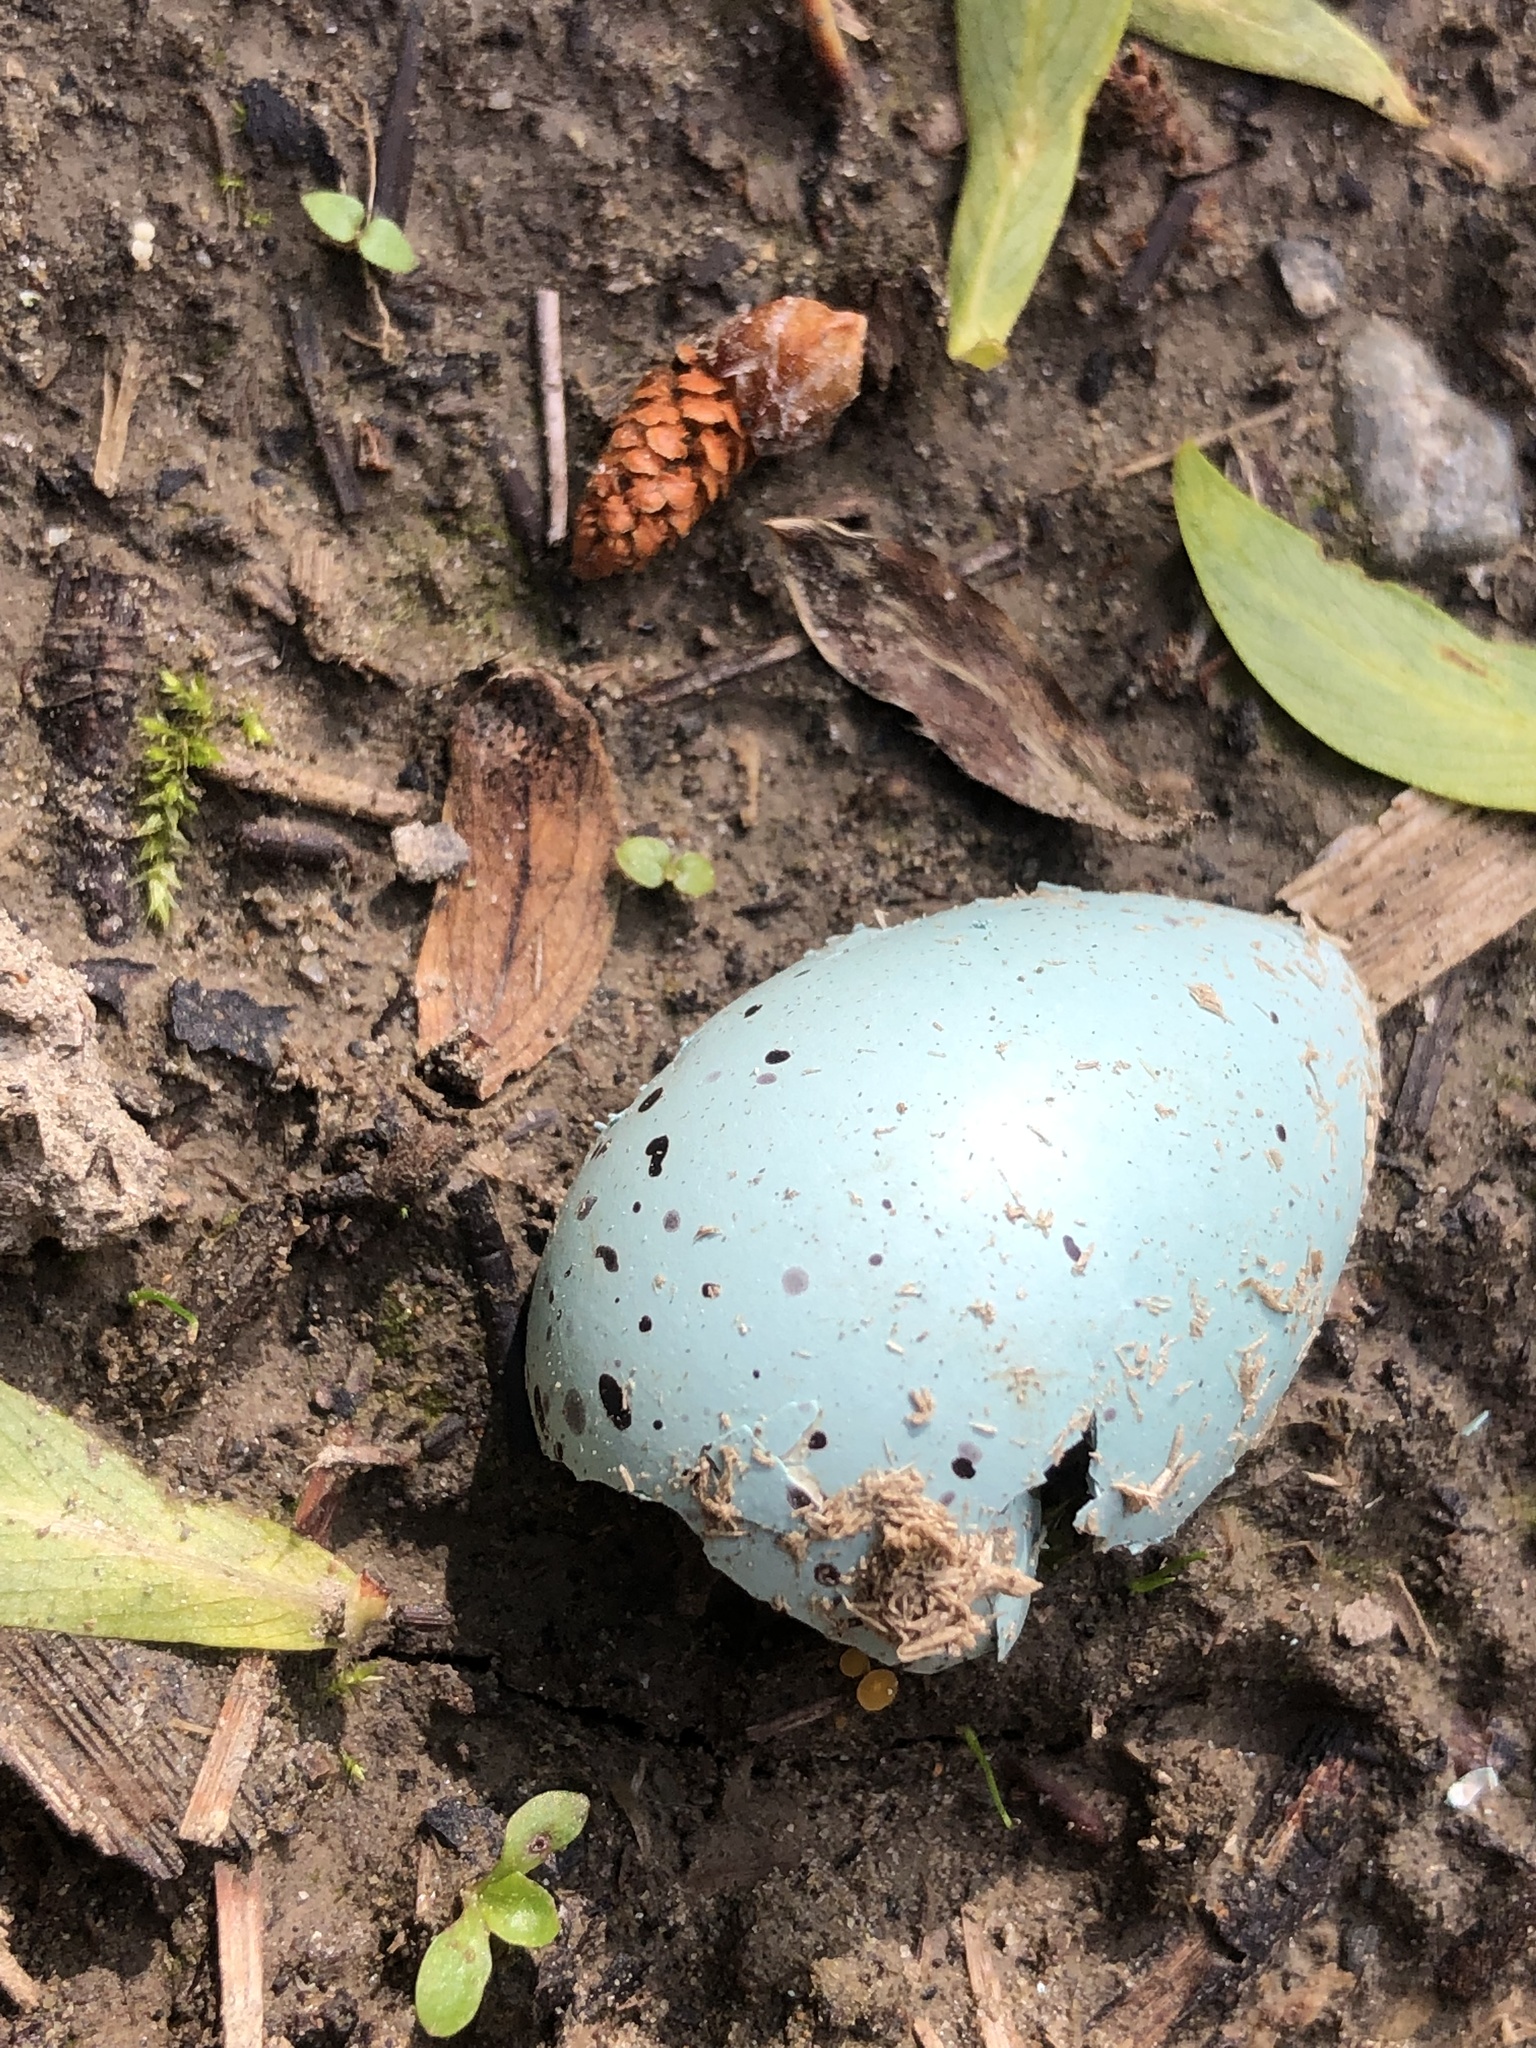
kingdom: Animalia
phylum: Chordata
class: Aves
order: Passeriformes
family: Turdidae
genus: Turdus
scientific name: Turdus philomelos
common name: Song thrush
